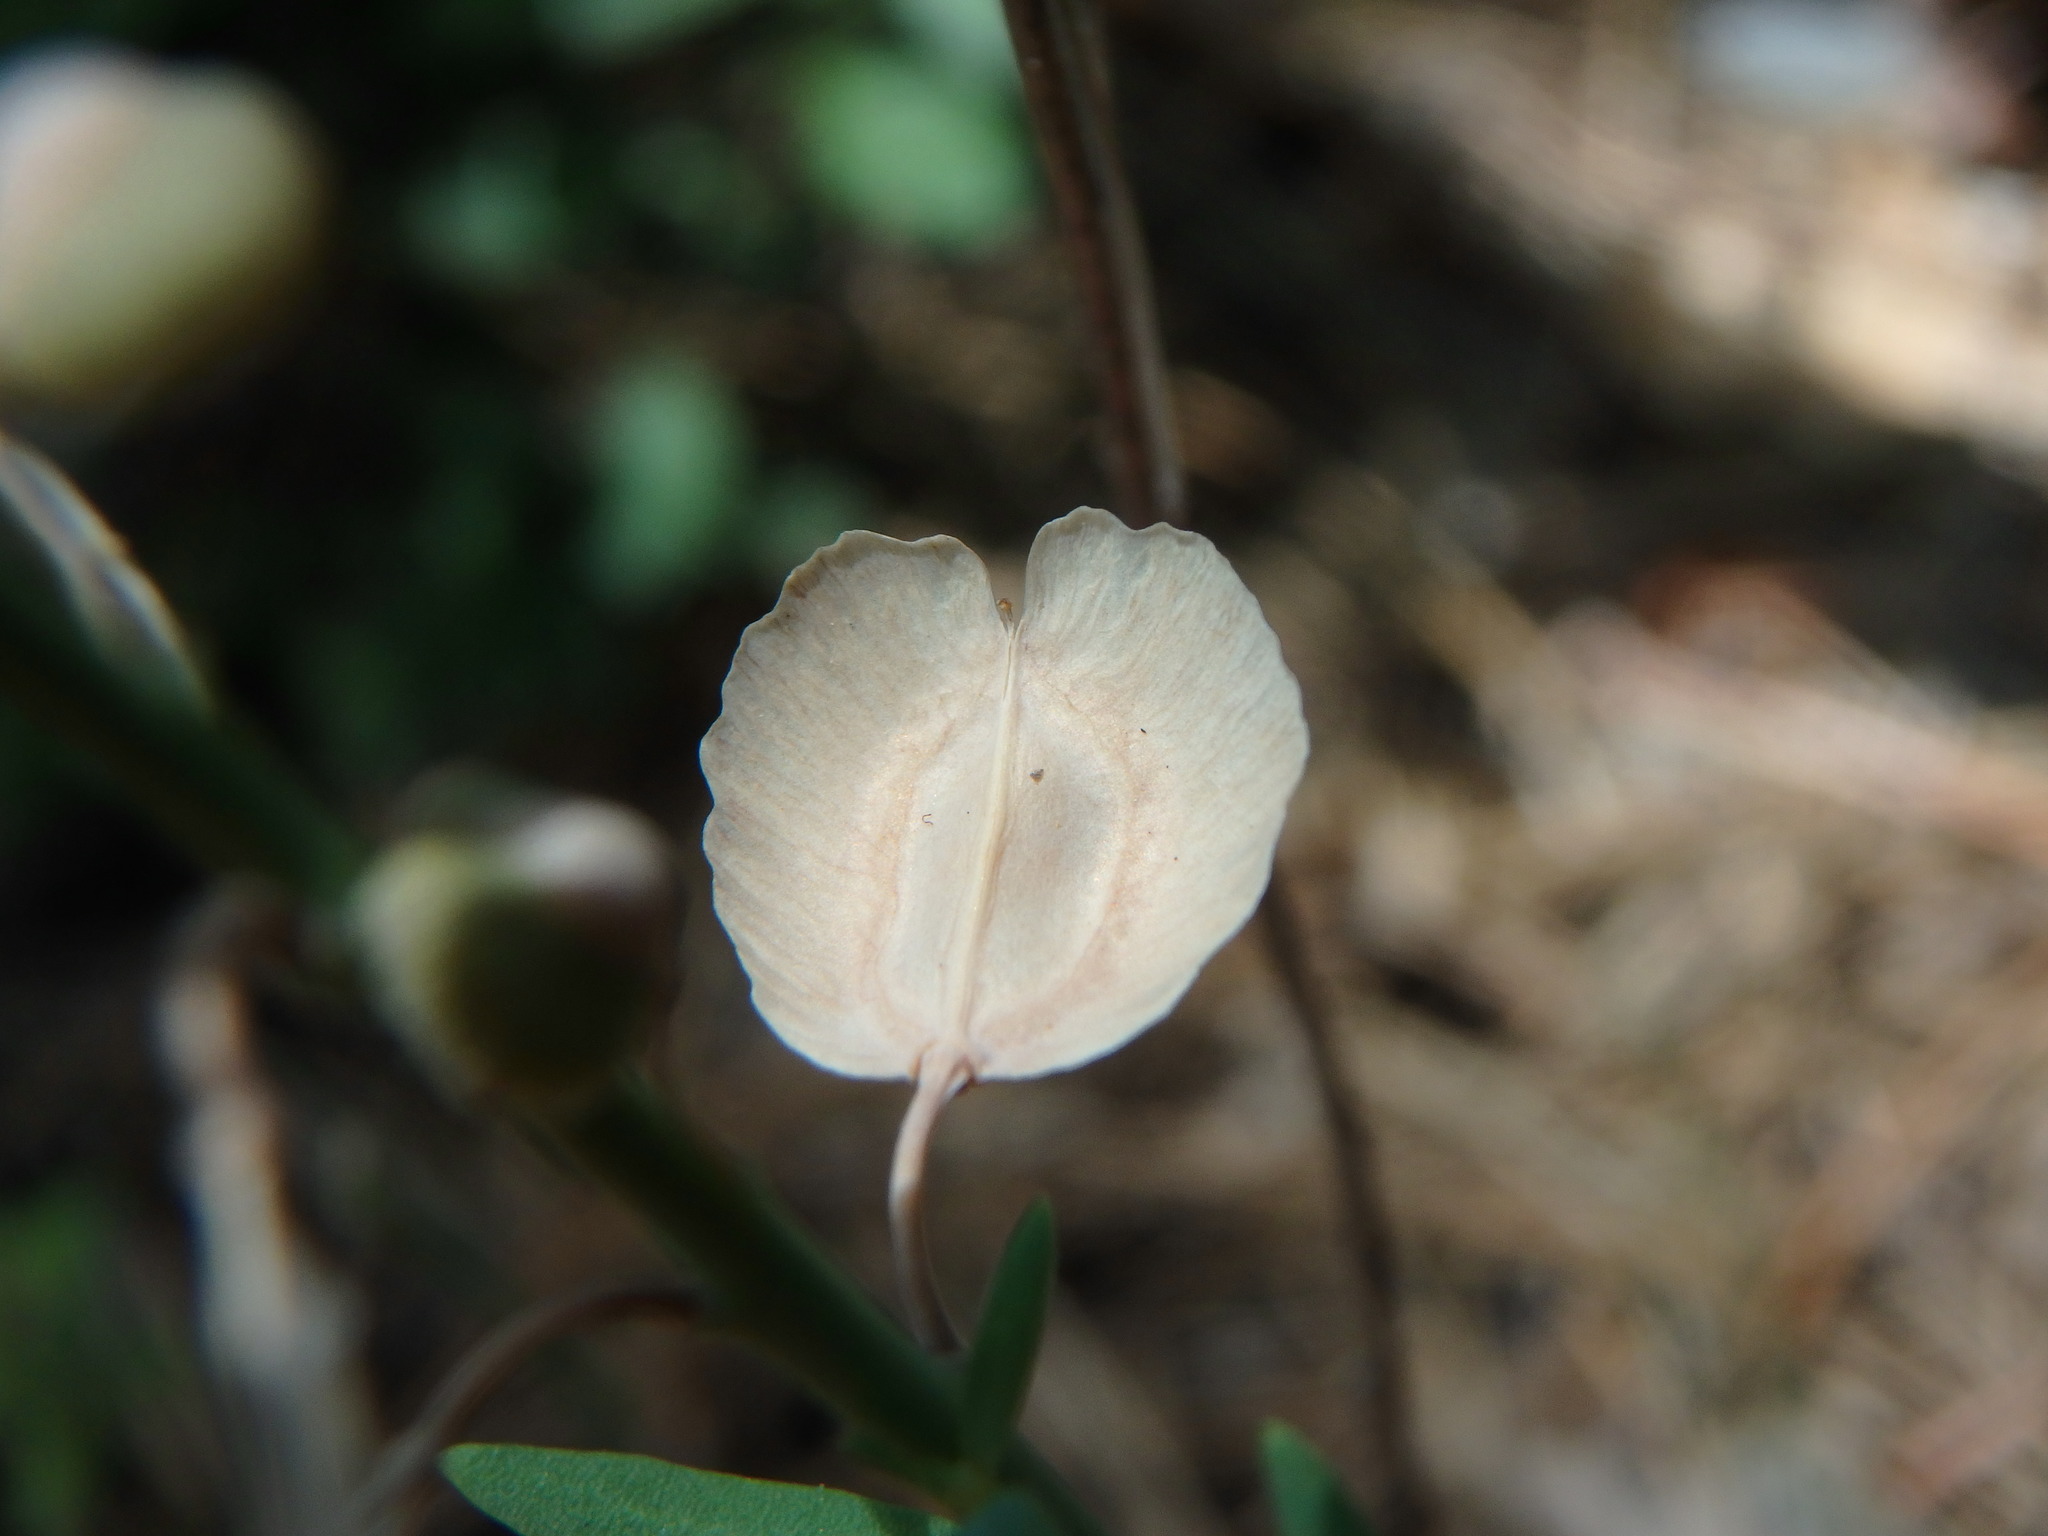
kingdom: Plantae
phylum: Tracheophyta
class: Magnoliopsida
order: Brassicales
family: Brassicaceae
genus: Aethionema
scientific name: Aethionema saxatile
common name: Burnt candytuft
